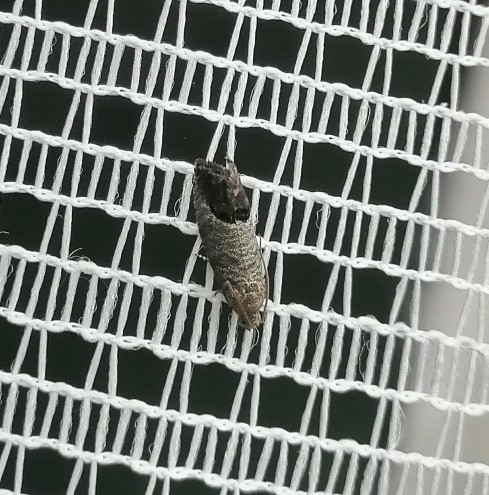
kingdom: Animalia
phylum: Arthropoda
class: Insecta
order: Lepidoptera
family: Tortricidae
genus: Cydia
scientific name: Cydia pomonella
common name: Codling moth
